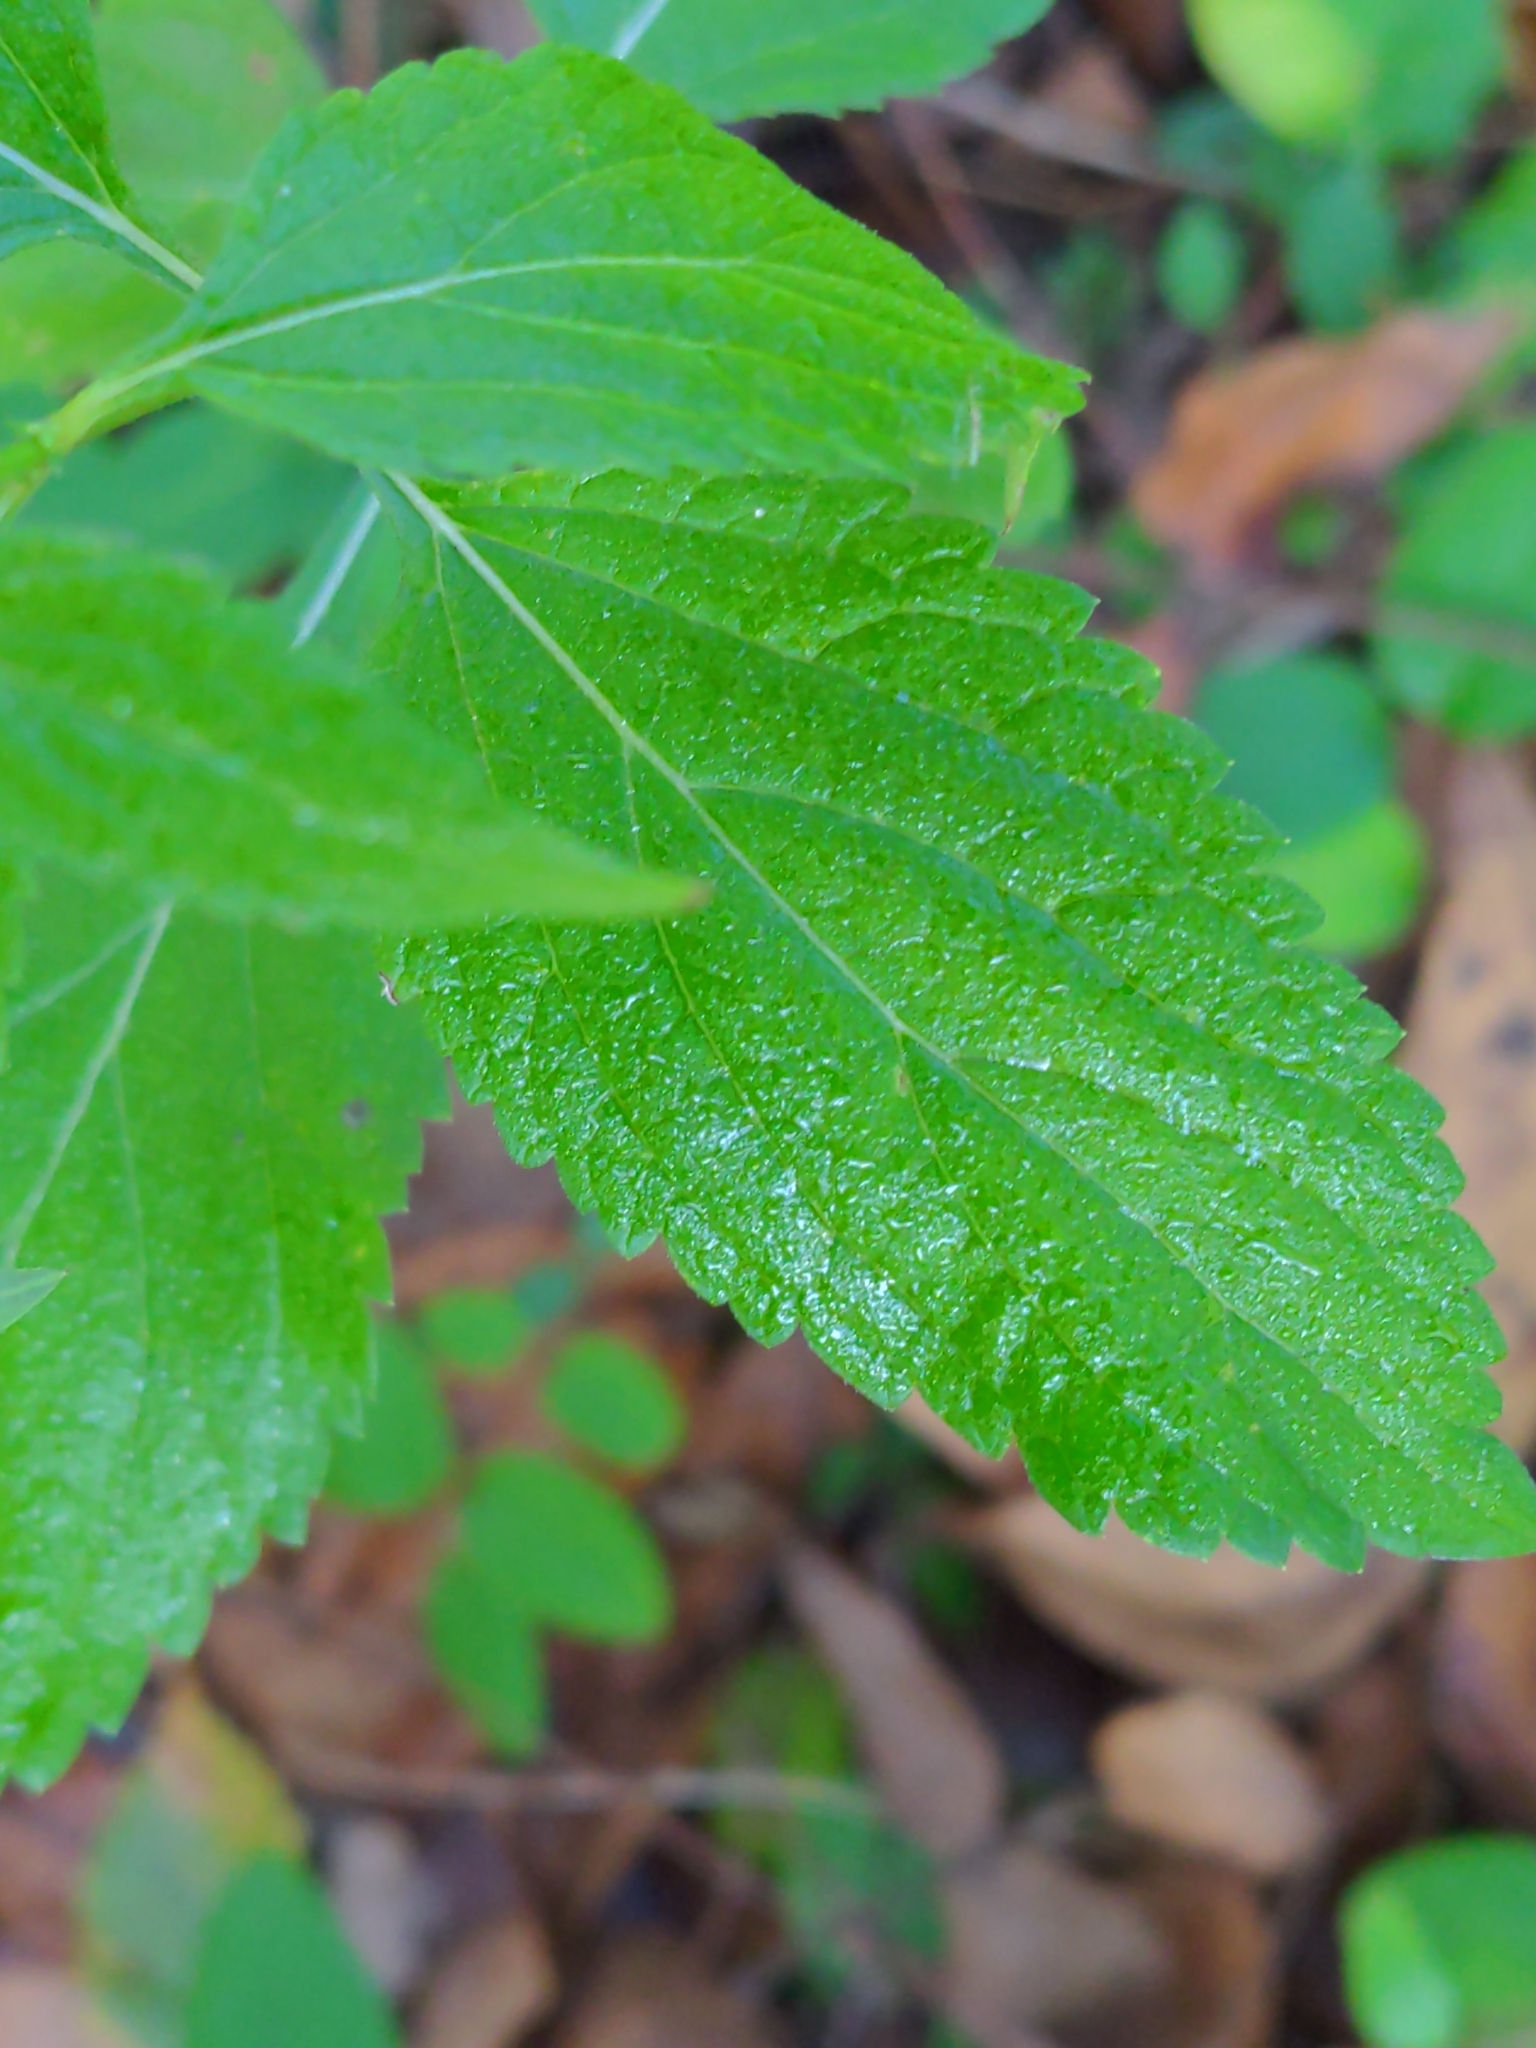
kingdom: Plantae
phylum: Tracheophyta
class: Magnoliopsida
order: Lamiales
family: Verbenaceae
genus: Verbena
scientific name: Verbena urticifolia
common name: Nettle-leaved vervain
